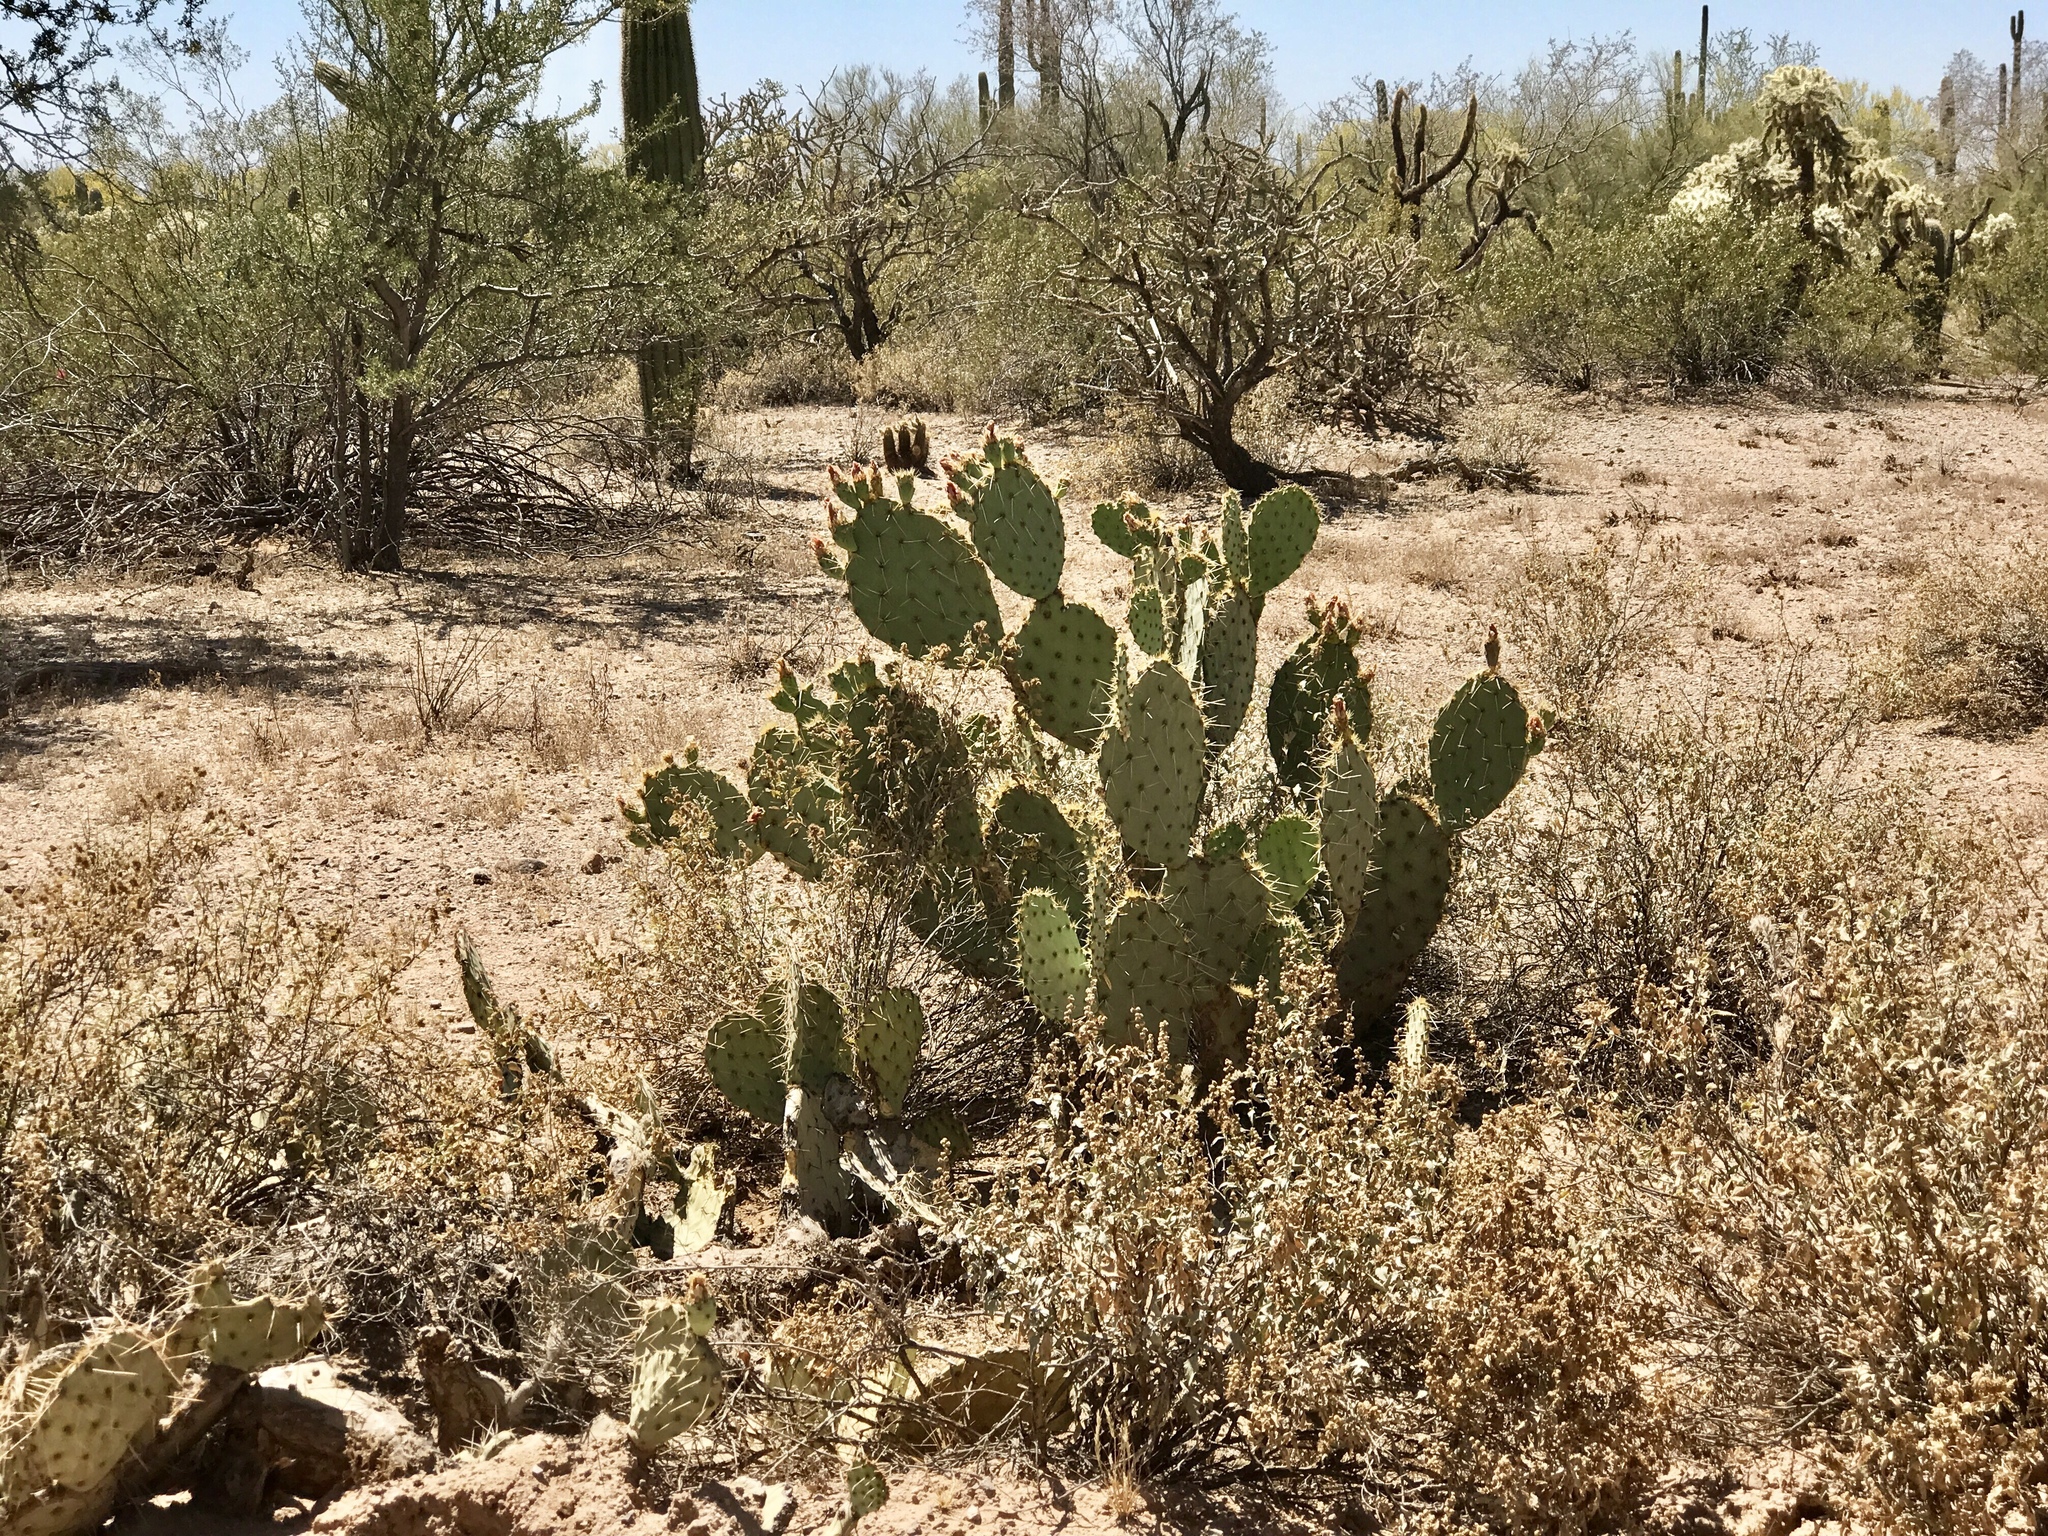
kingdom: Plantae
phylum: Tracheophyta
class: Magnoliopsida
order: Caryophyllales
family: Cactaceae
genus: Opuntia
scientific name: Opuntia engelmannii
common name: Cactus-apple
